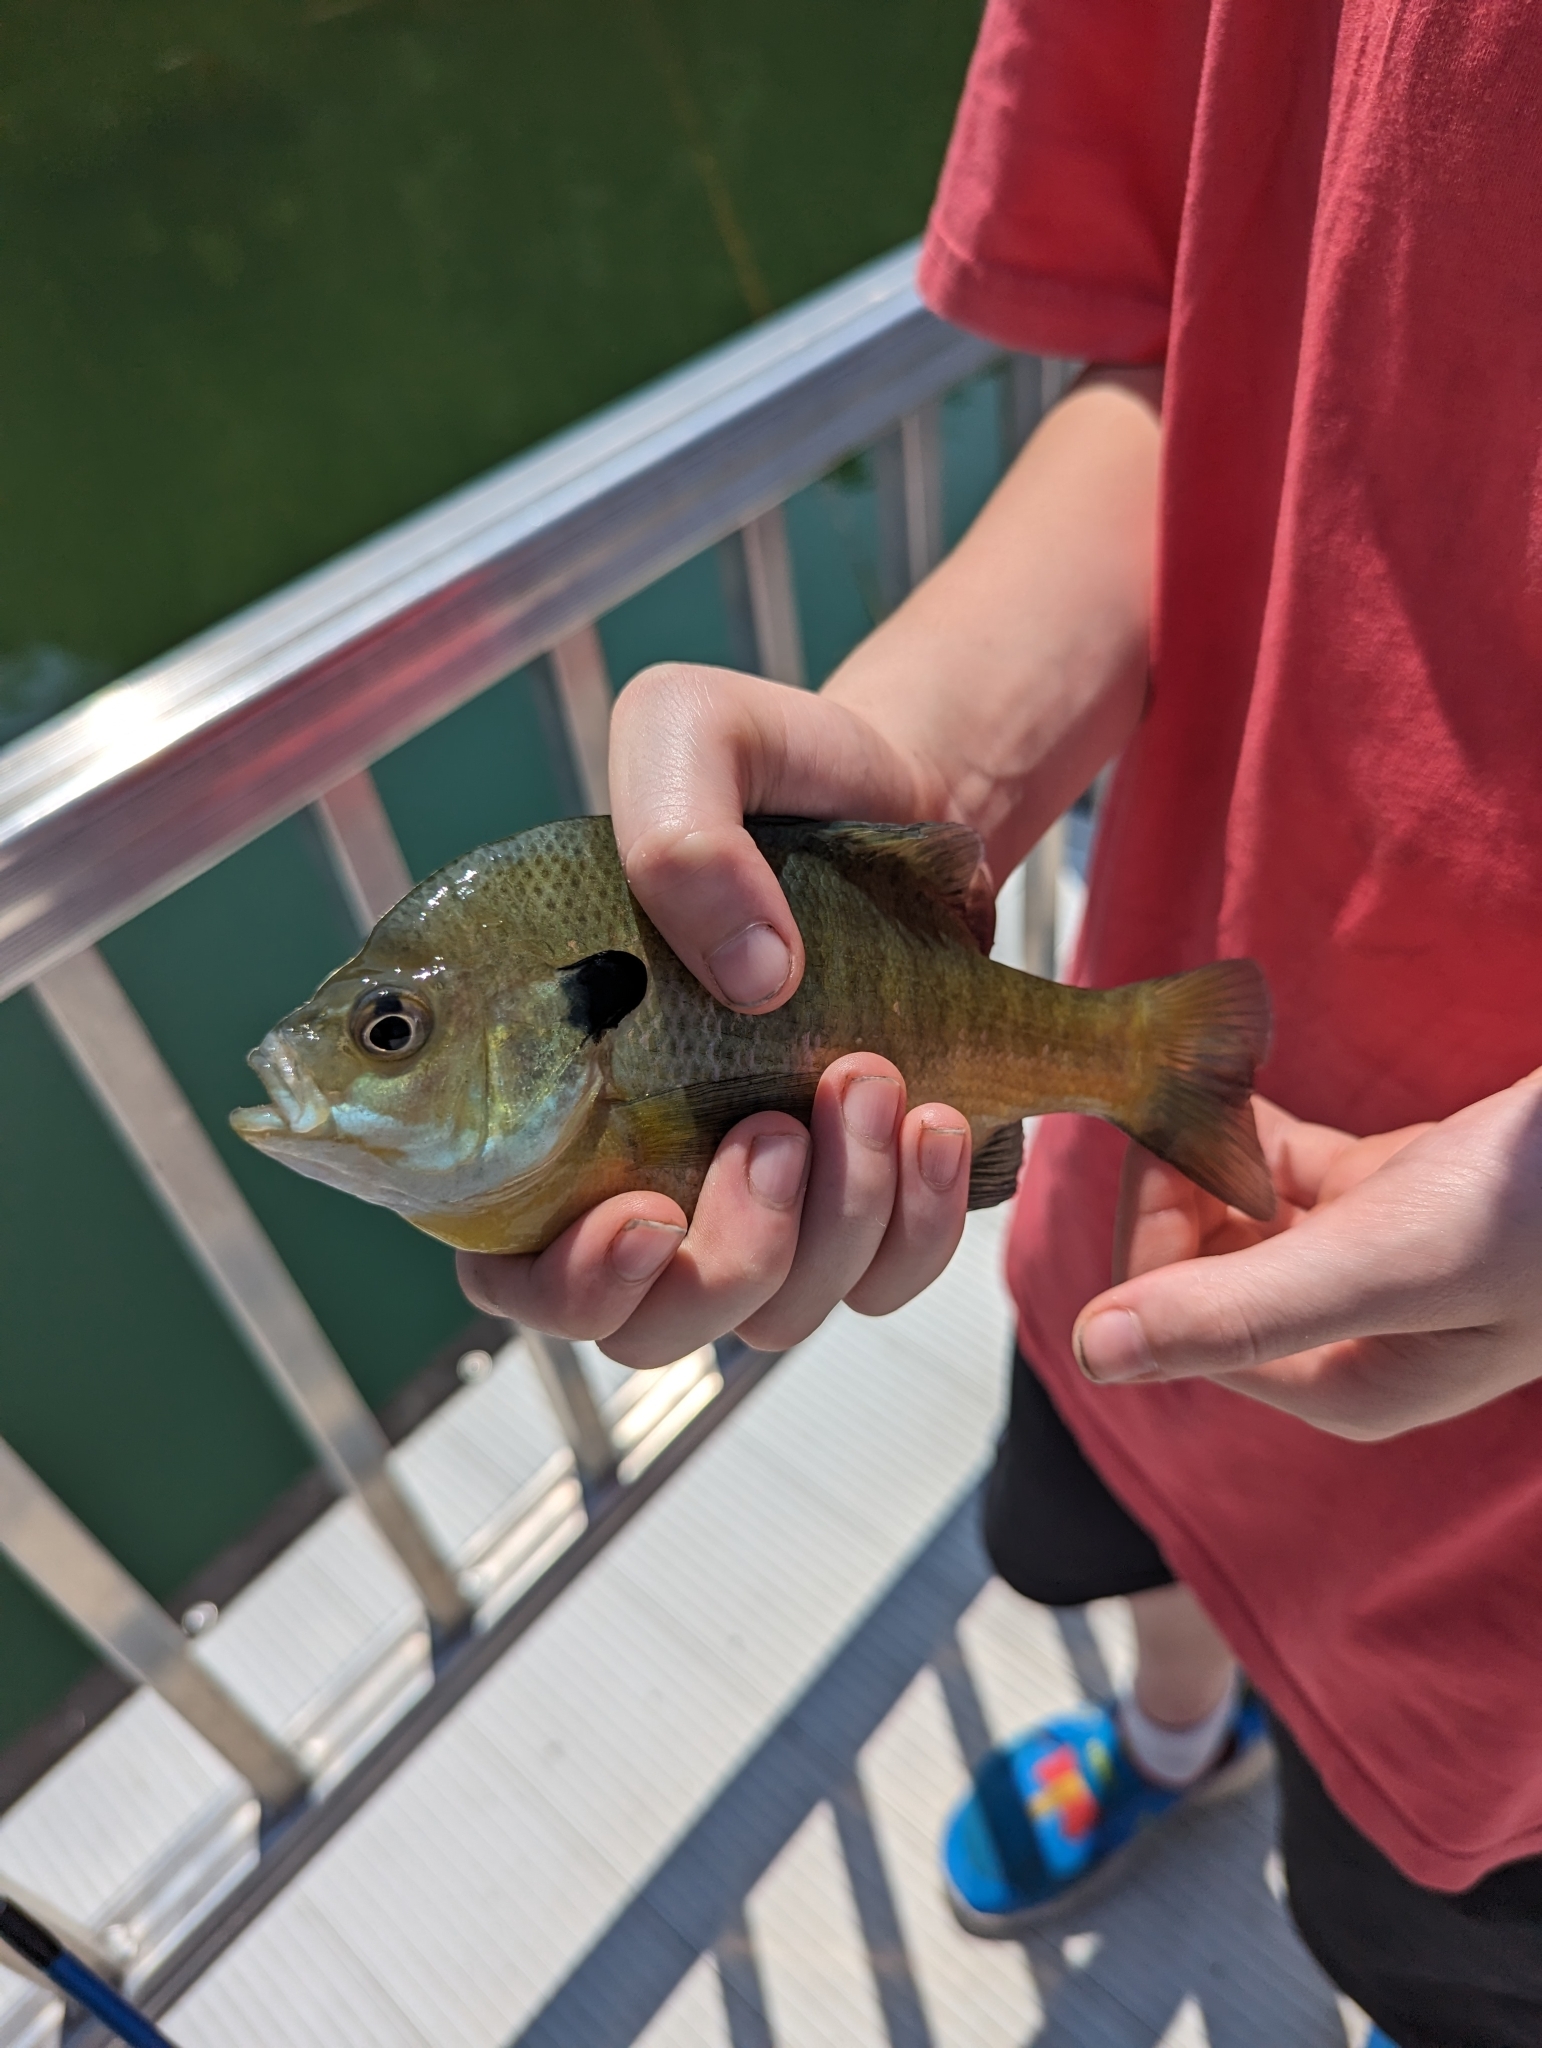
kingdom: Animalia
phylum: Chordata
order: Perciformes
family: Centrarchidae
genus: Lepomis
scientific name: Lepomis macrochirus
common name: Bluegill
